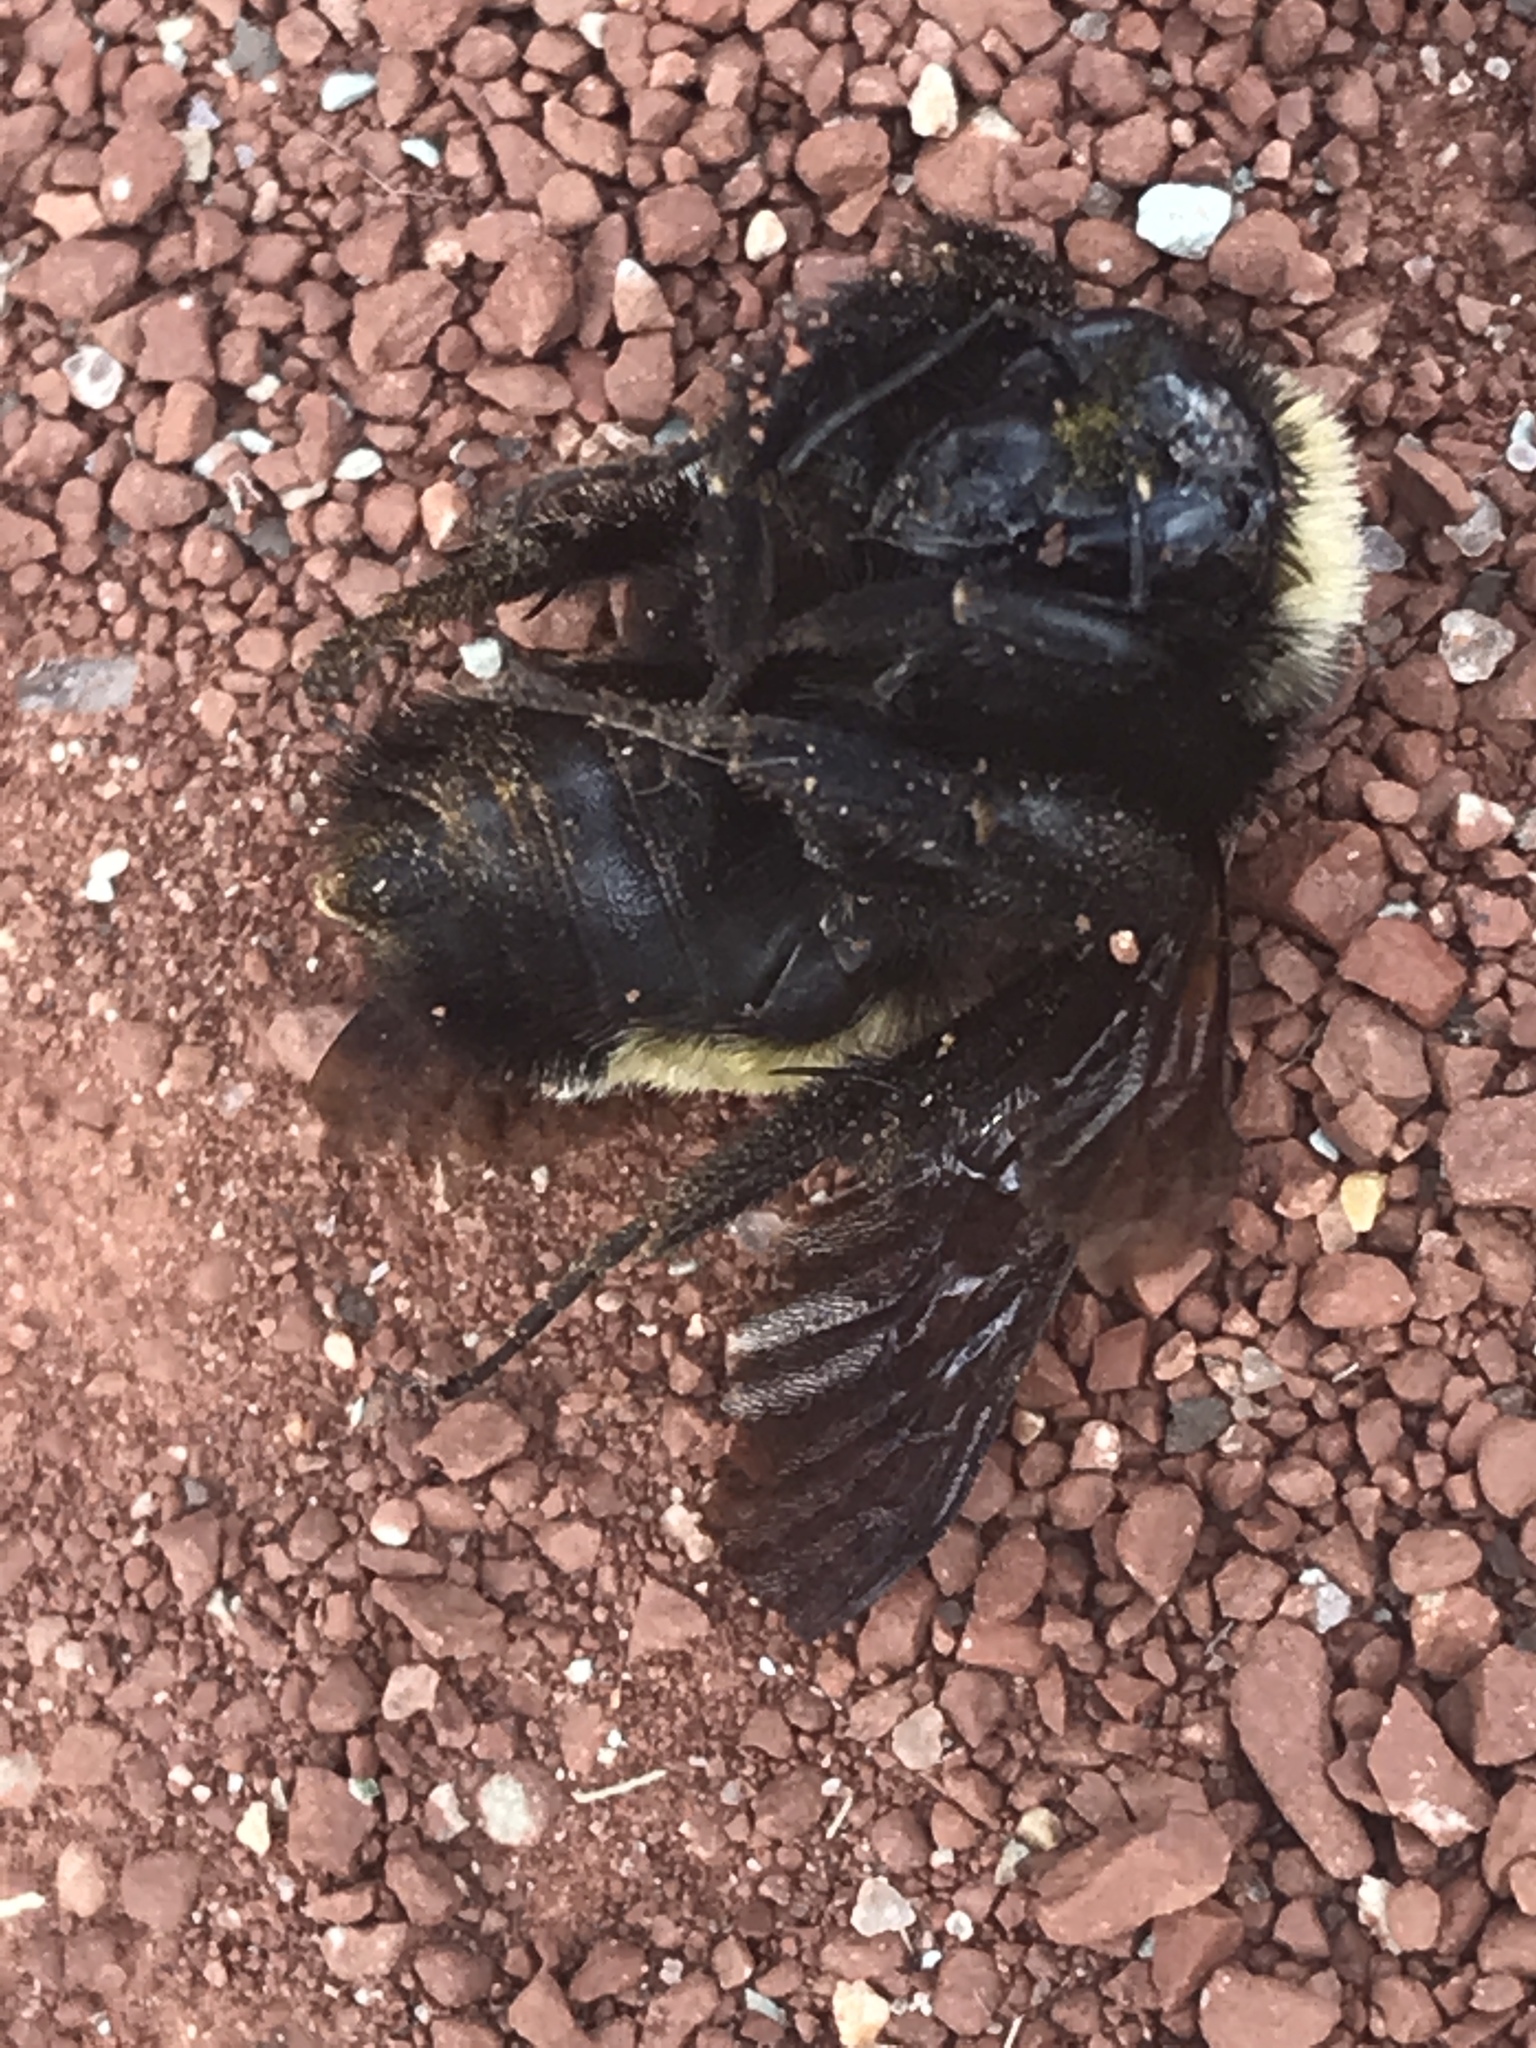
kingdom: Animalia
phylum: Arthropoda
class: Insecta
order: Hymenoptera
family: Apidae
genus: Bombus
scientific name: Bombus pensylvanicus
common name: Bumble bee
